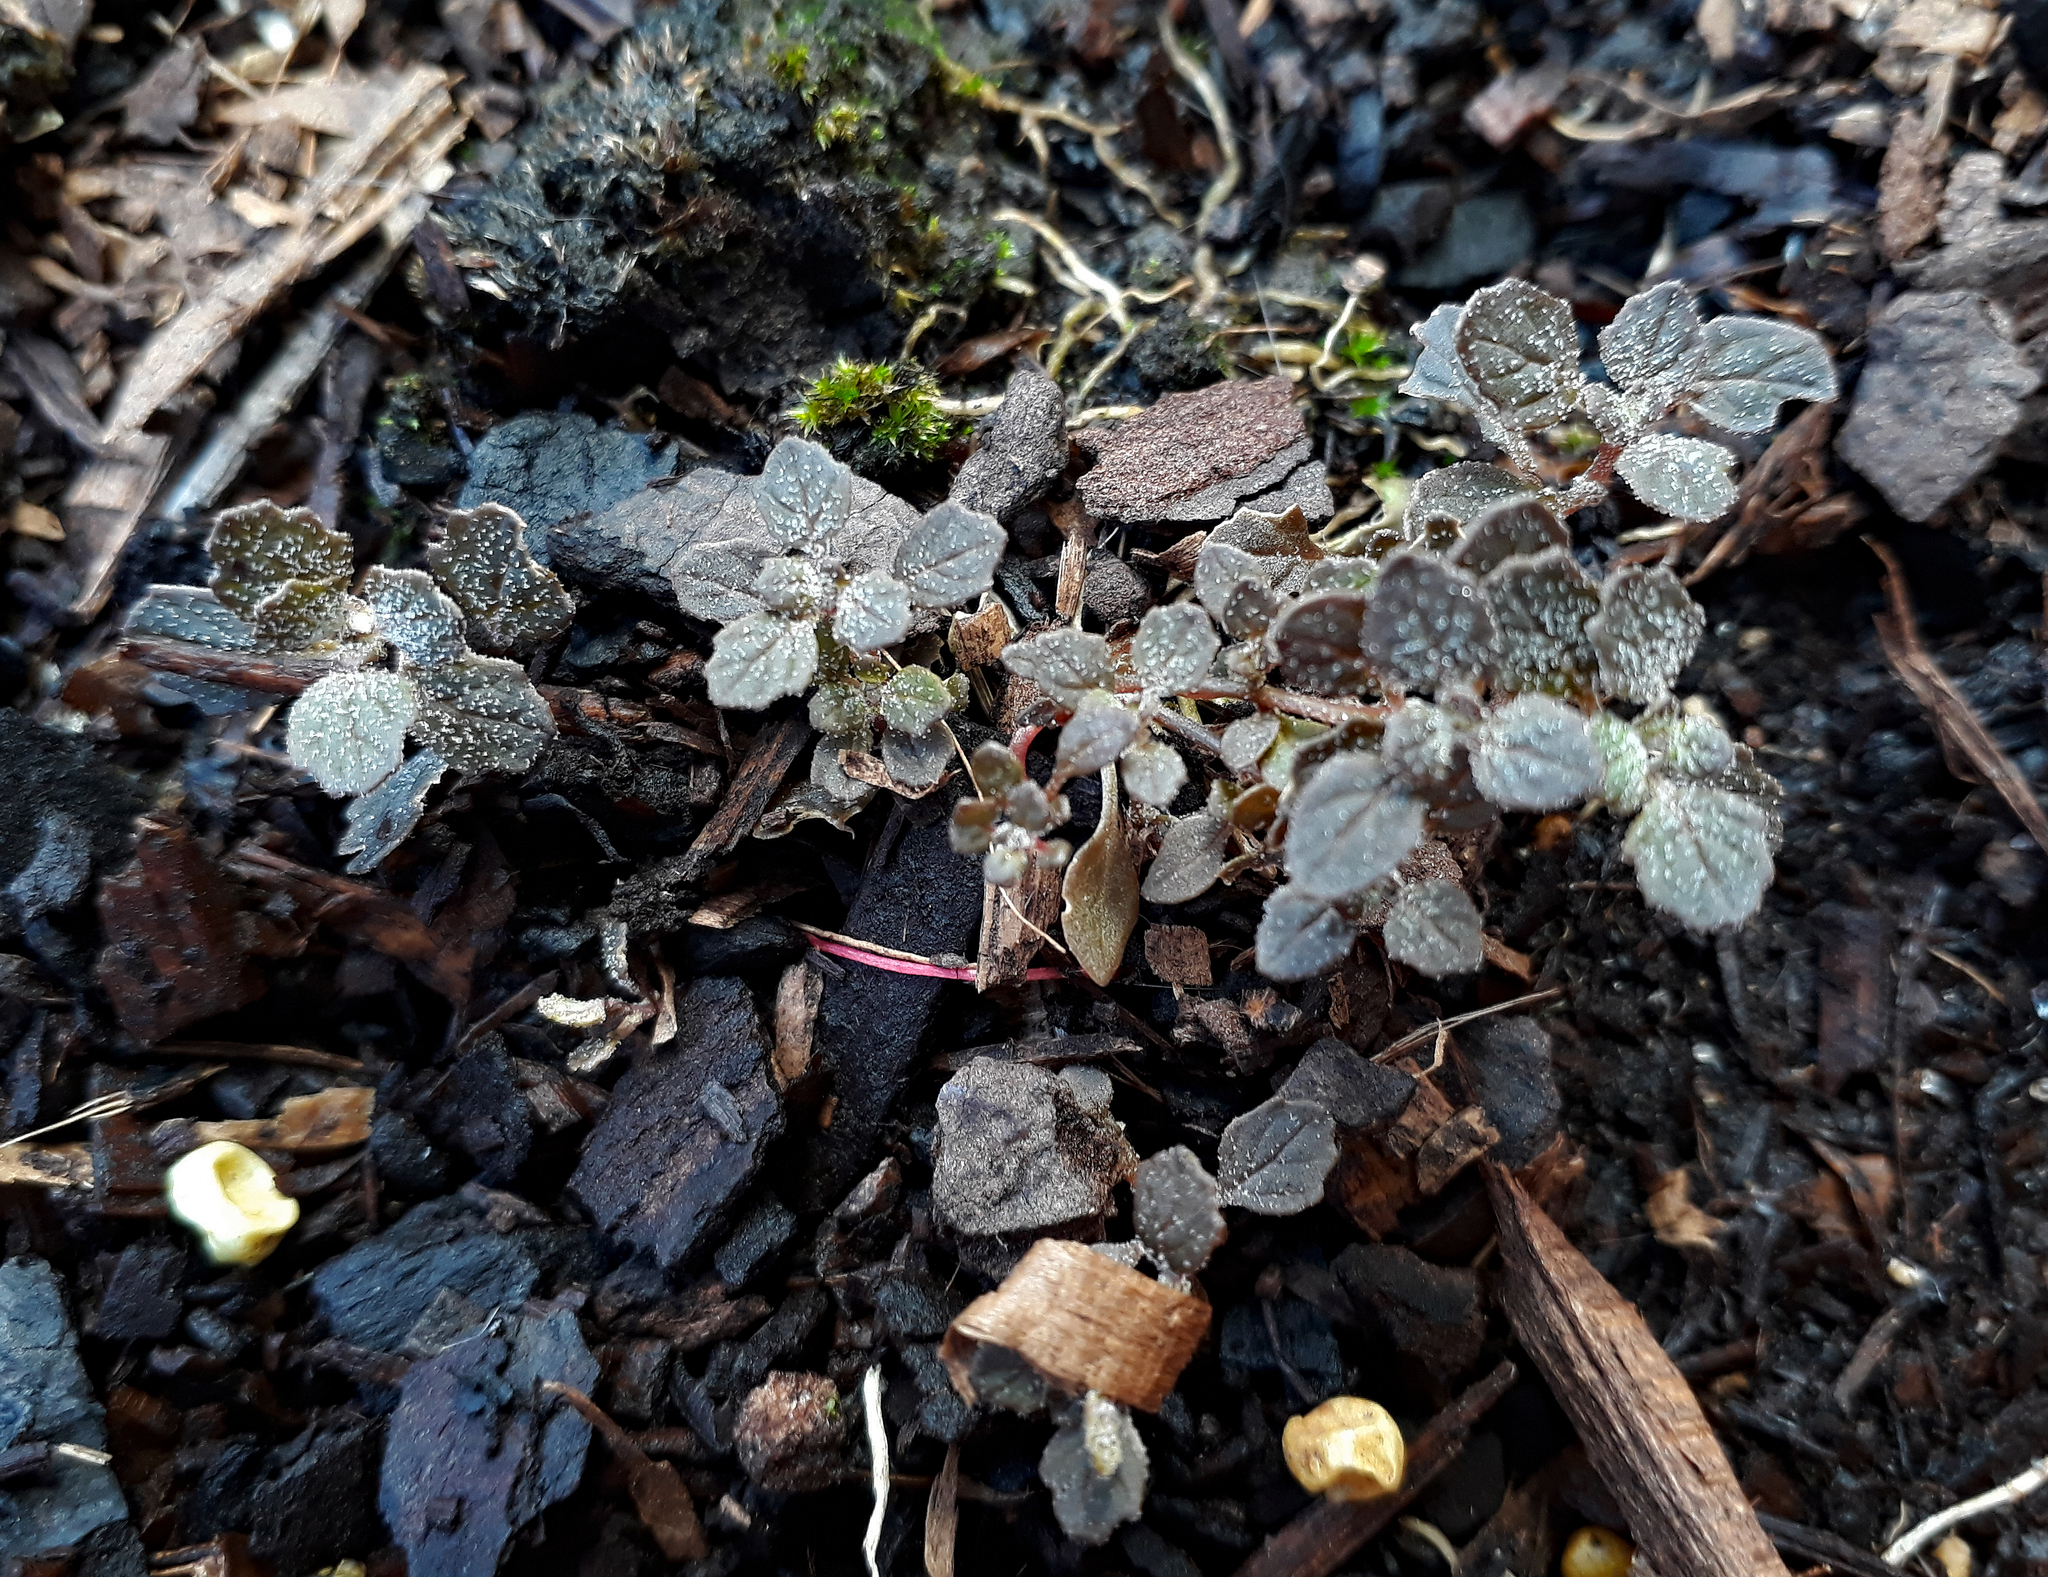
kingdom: Plantae
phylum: Tracheophyta
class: Magnoliopsida
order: Caryophyllales
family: Amaranthaceae
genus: Dysphania
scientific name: Dysphania pusilla
